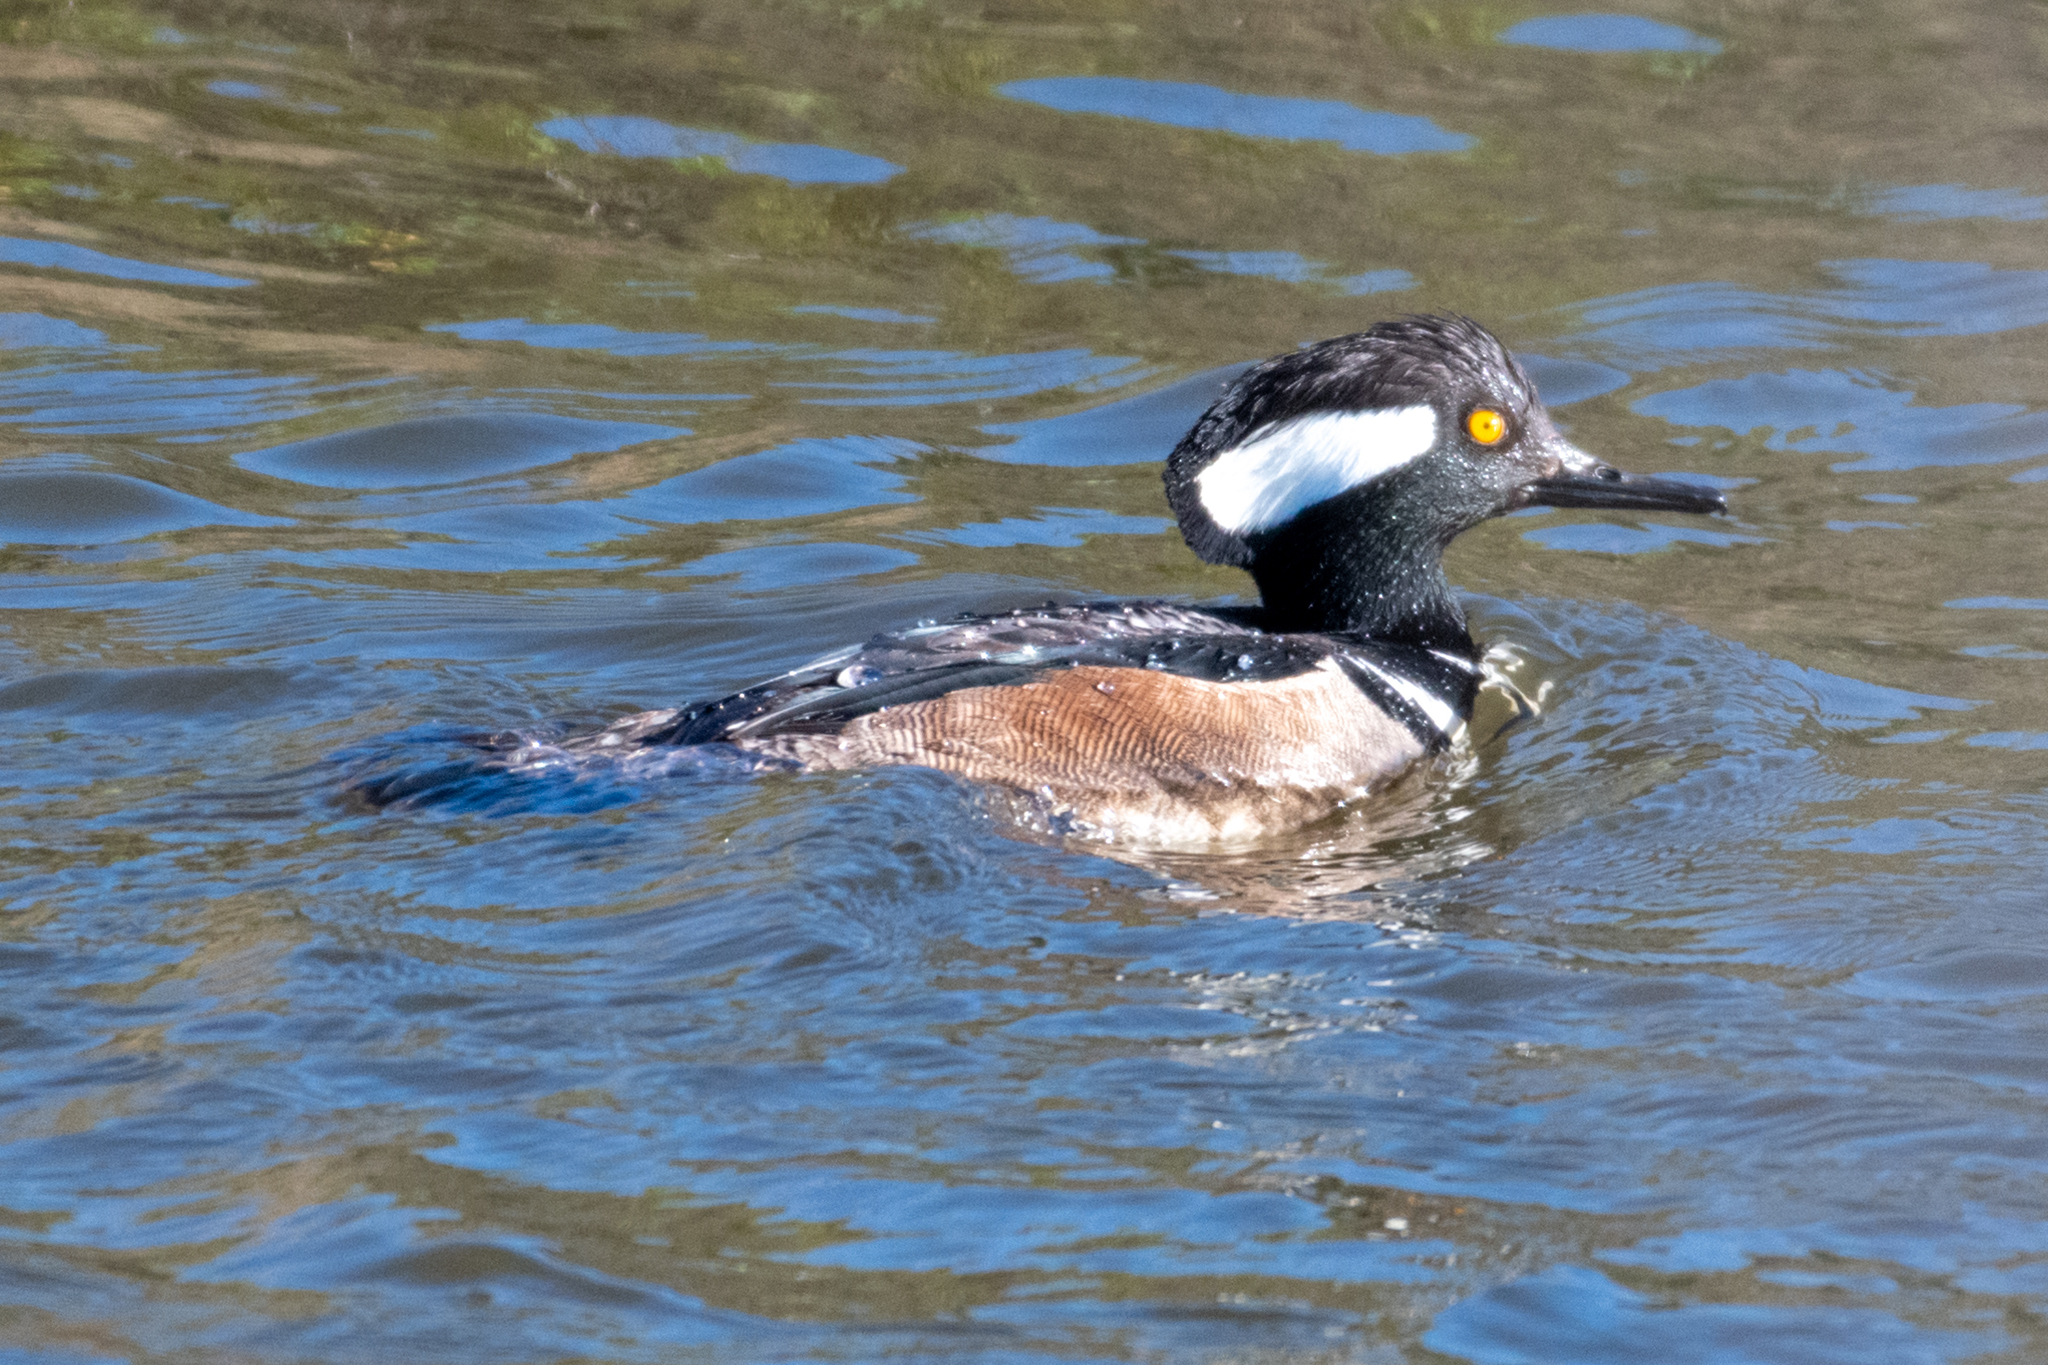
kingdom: Animalia
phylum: Chordata
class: Aves
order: Anseriformes
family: Anatidae
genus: Lophodytes
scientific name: Lophodytes cucullatus
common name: Hooded merganser
